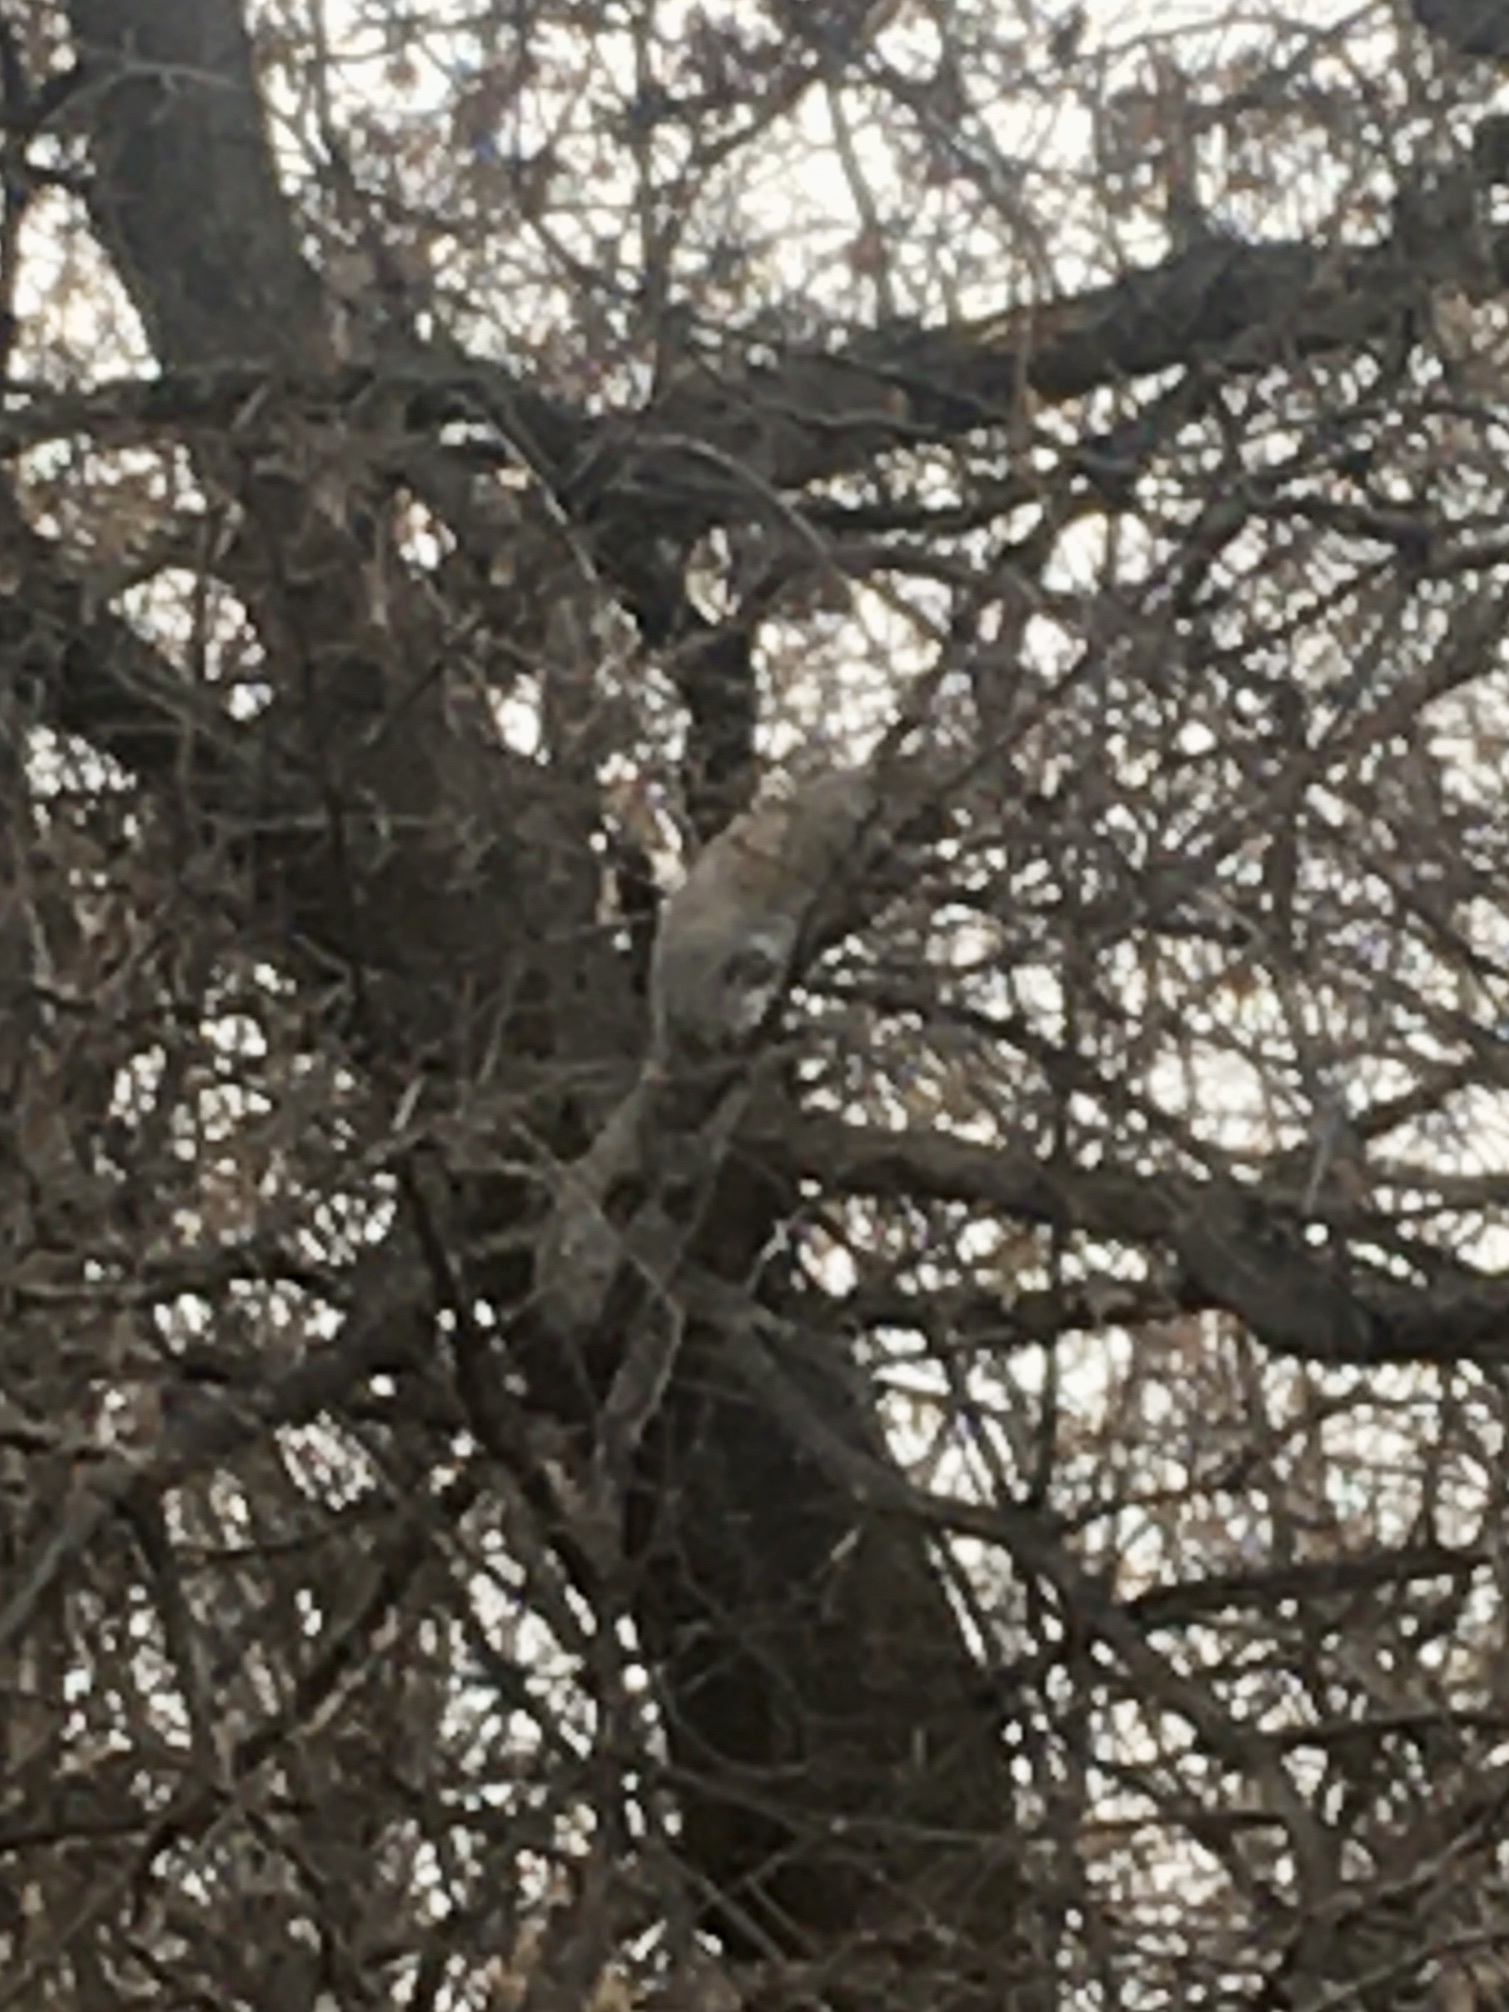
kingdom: Animalia
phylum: Chordata
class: Mammalia
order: Rodentia
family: Sciuridae
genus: Sciurus
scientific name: Sciurus carolinensis
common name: Eastern gray squirrel
